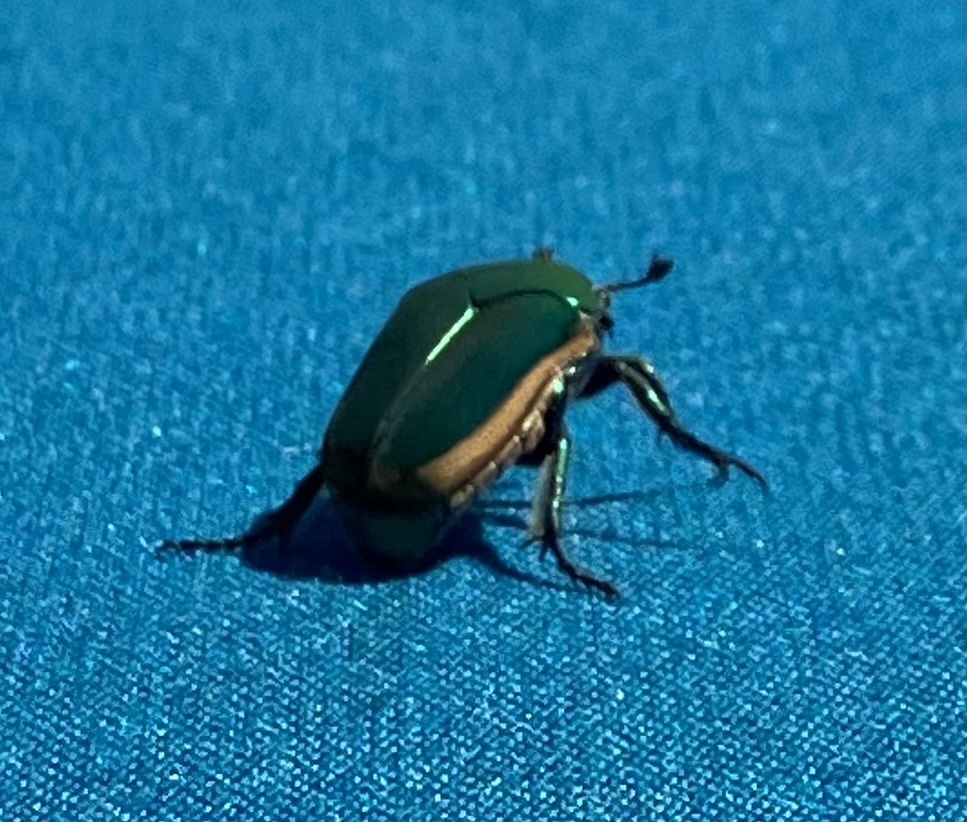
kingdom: Animalia
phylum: Arthropoda
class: Insecta
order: Coleoptera
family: Scarabaeidae
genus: Cotinis
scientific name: Cotinis mutabilis
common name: Figeater beetle
